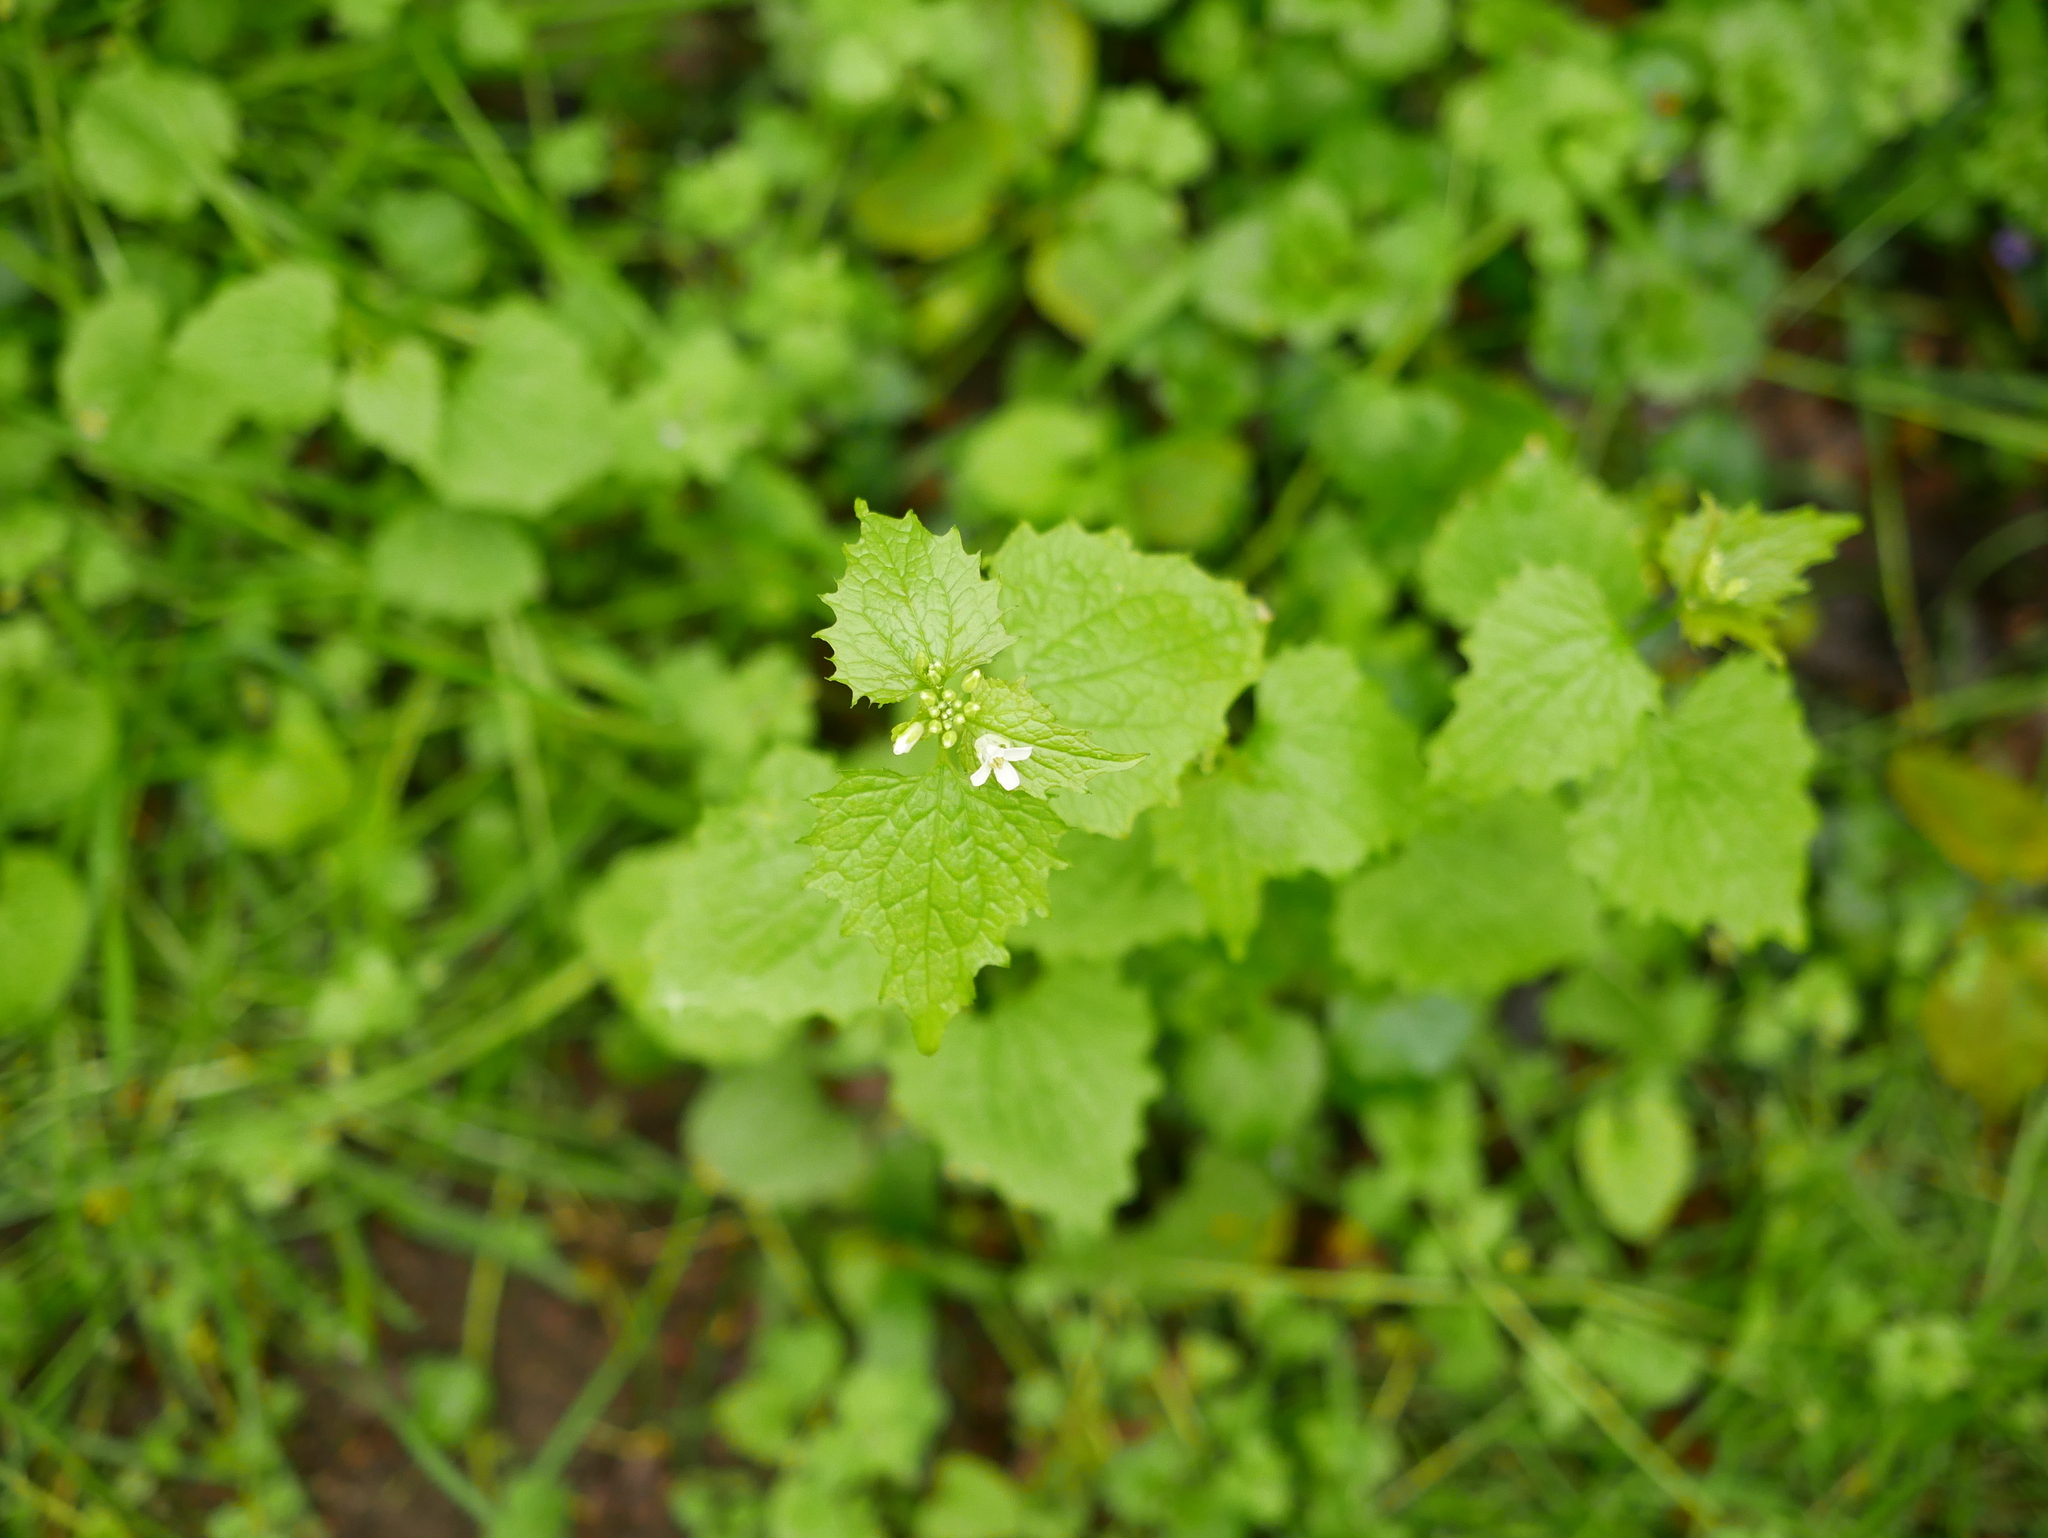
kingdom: Plantae
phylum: Tracheophyta
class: Magnoliopsida
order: Brassicales
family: Brassicaceae
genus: Alliaria
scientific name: Alliaria petiolata
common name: Garlic mustard
